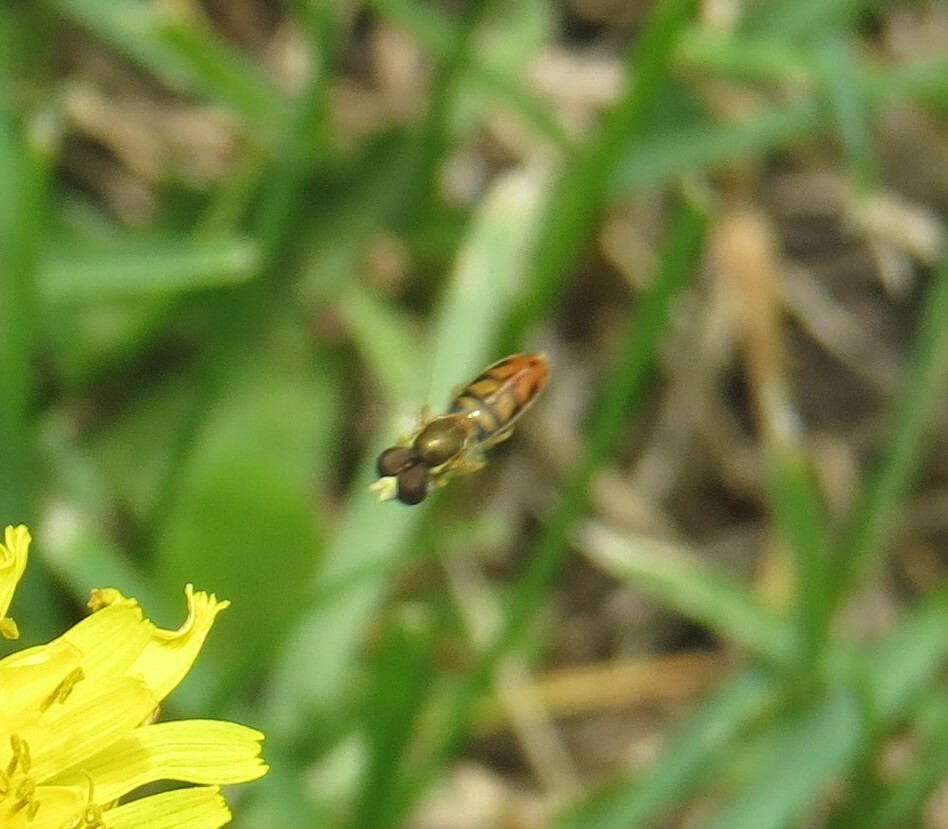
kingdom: Animalia
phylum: Arthropoda
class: Insecta
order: Diptera
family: Syrphidae
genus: Toxomerus
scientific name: Toxomerus marginatus
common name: Syrphid fly
